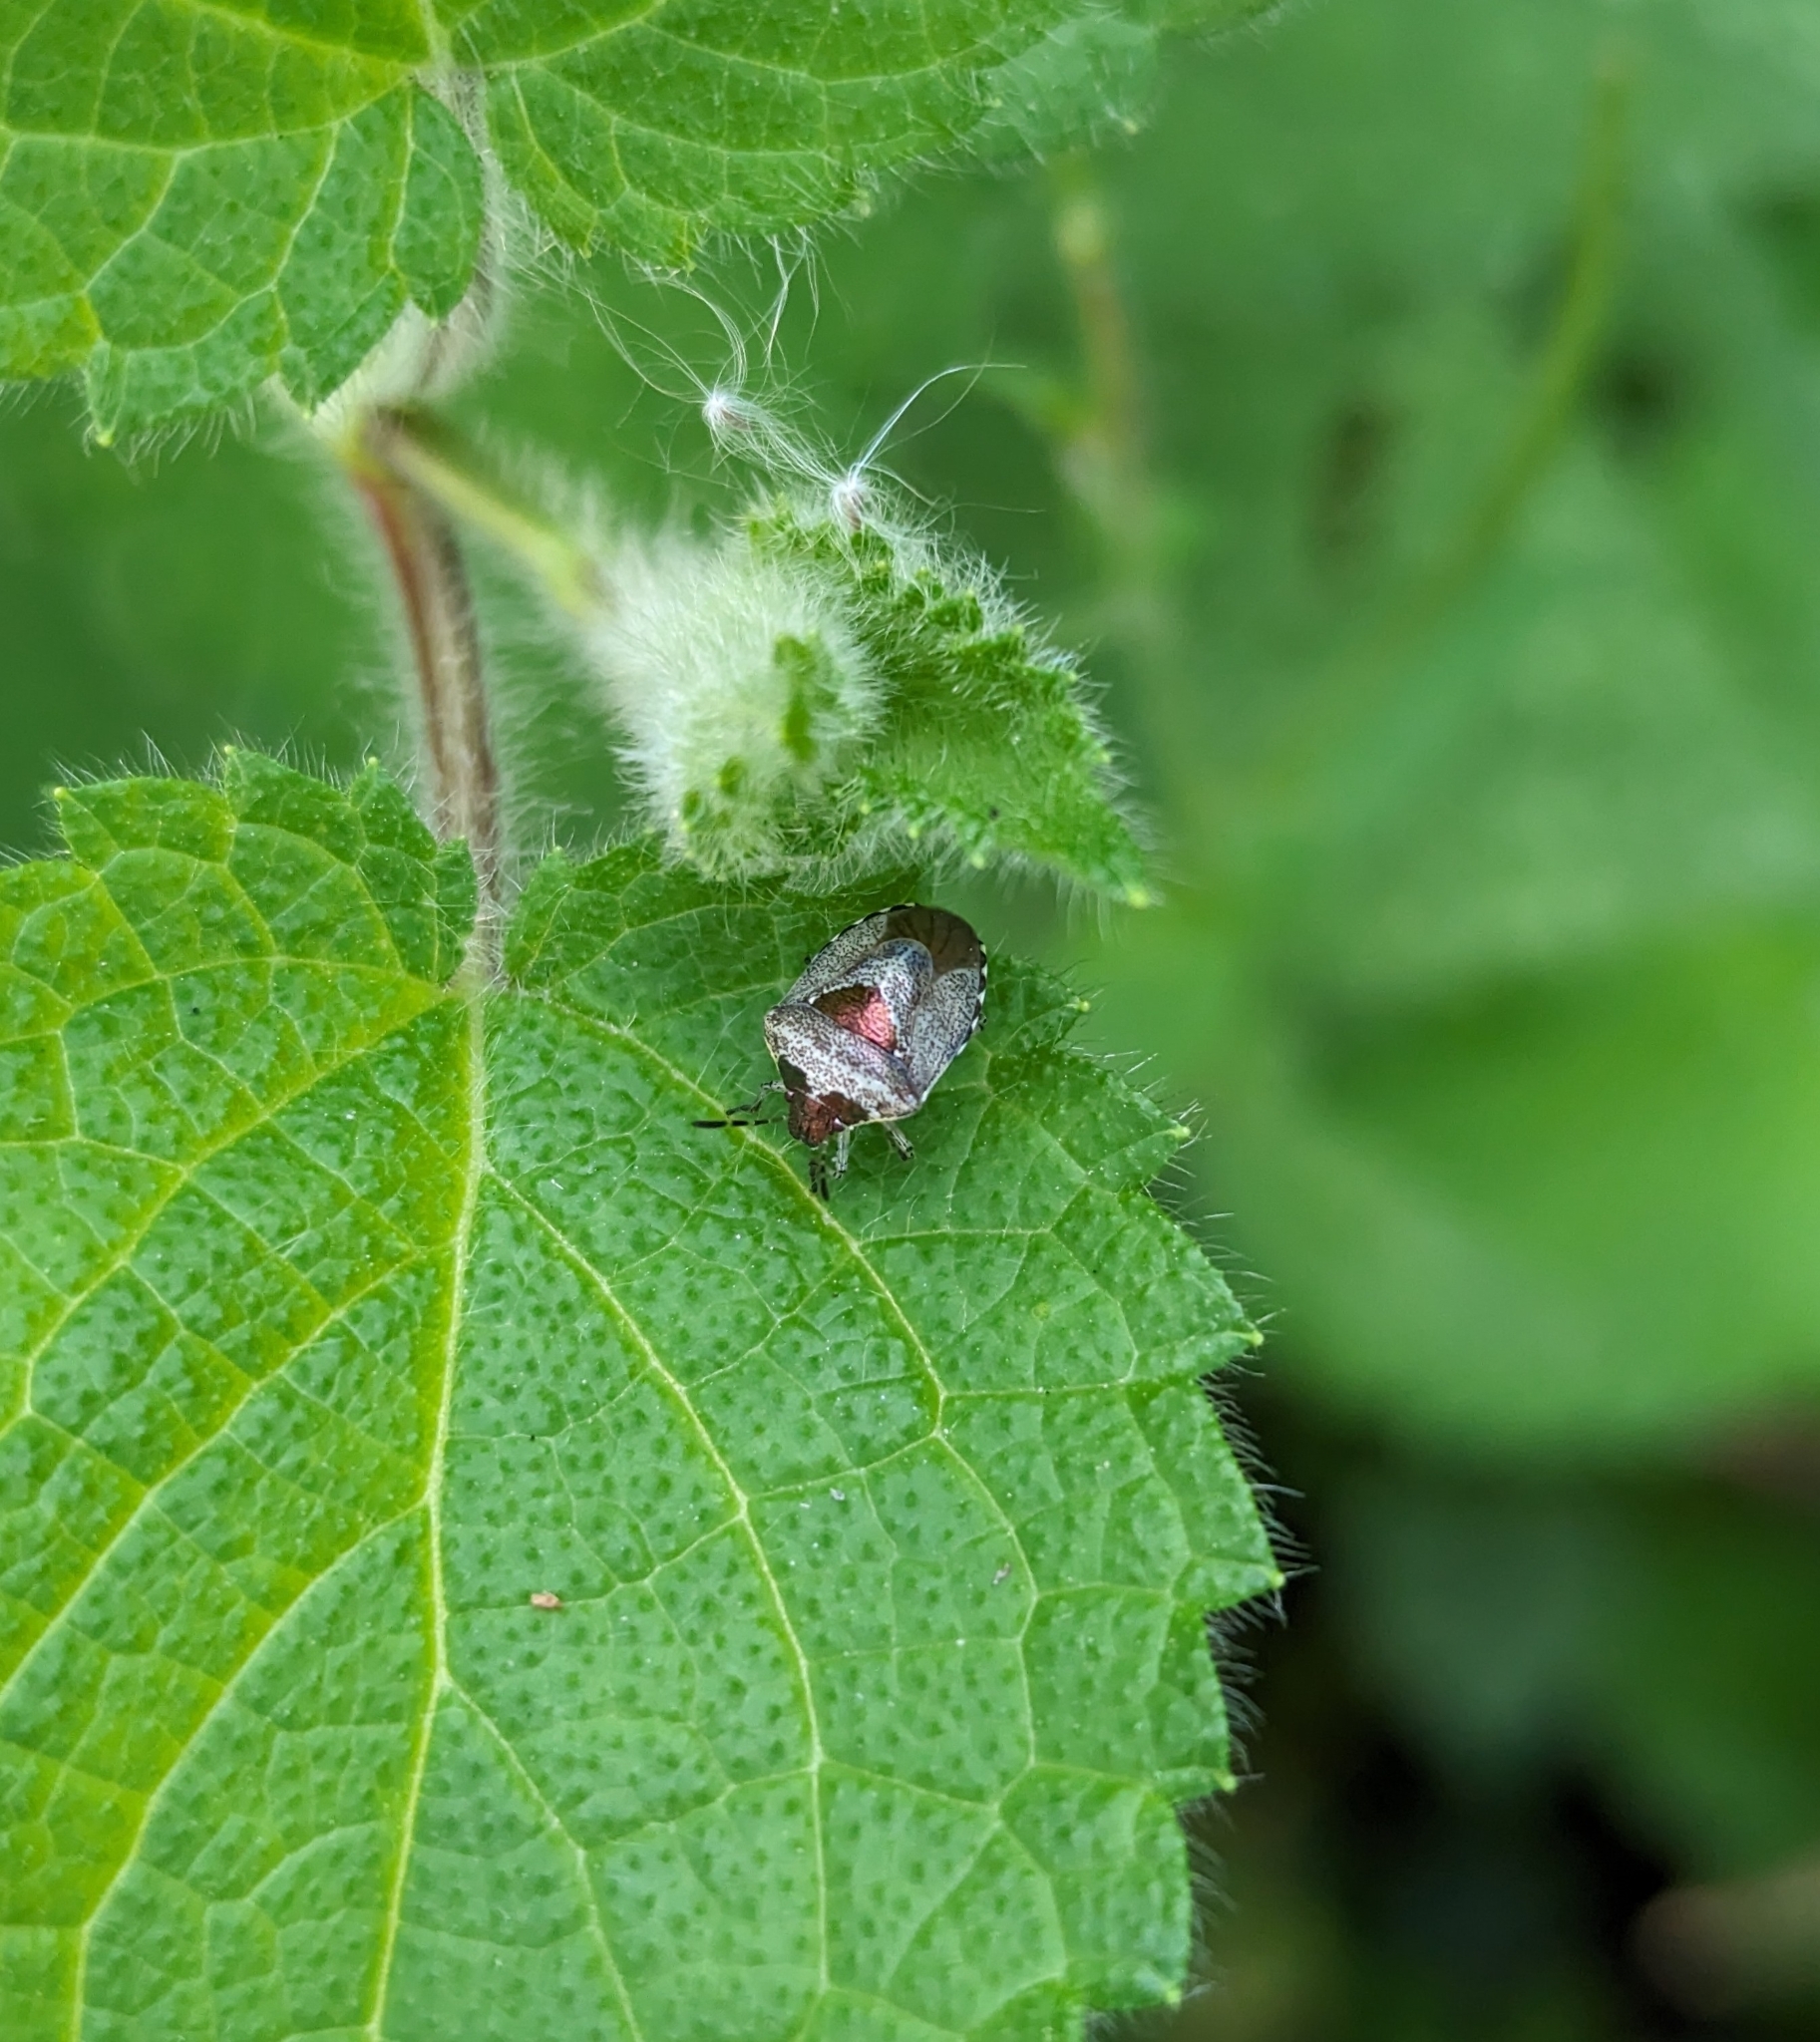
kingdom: Animalia
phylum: Arthropoda
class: Insecta
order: Hemiptera
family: Pentatomidae
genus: Eysarcoris
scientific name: Eysarcoris venustissimus
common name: Woundwort shieldbug
